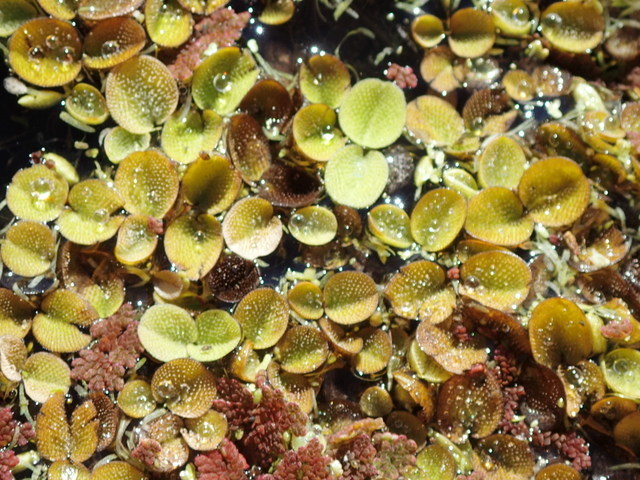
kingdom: Plantae
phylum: Tracheophyta
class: Polypodiopsida
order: Salviniales
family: Salviniaceae
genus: Salvinia
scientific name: Salvinia minima
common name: Water spangles
